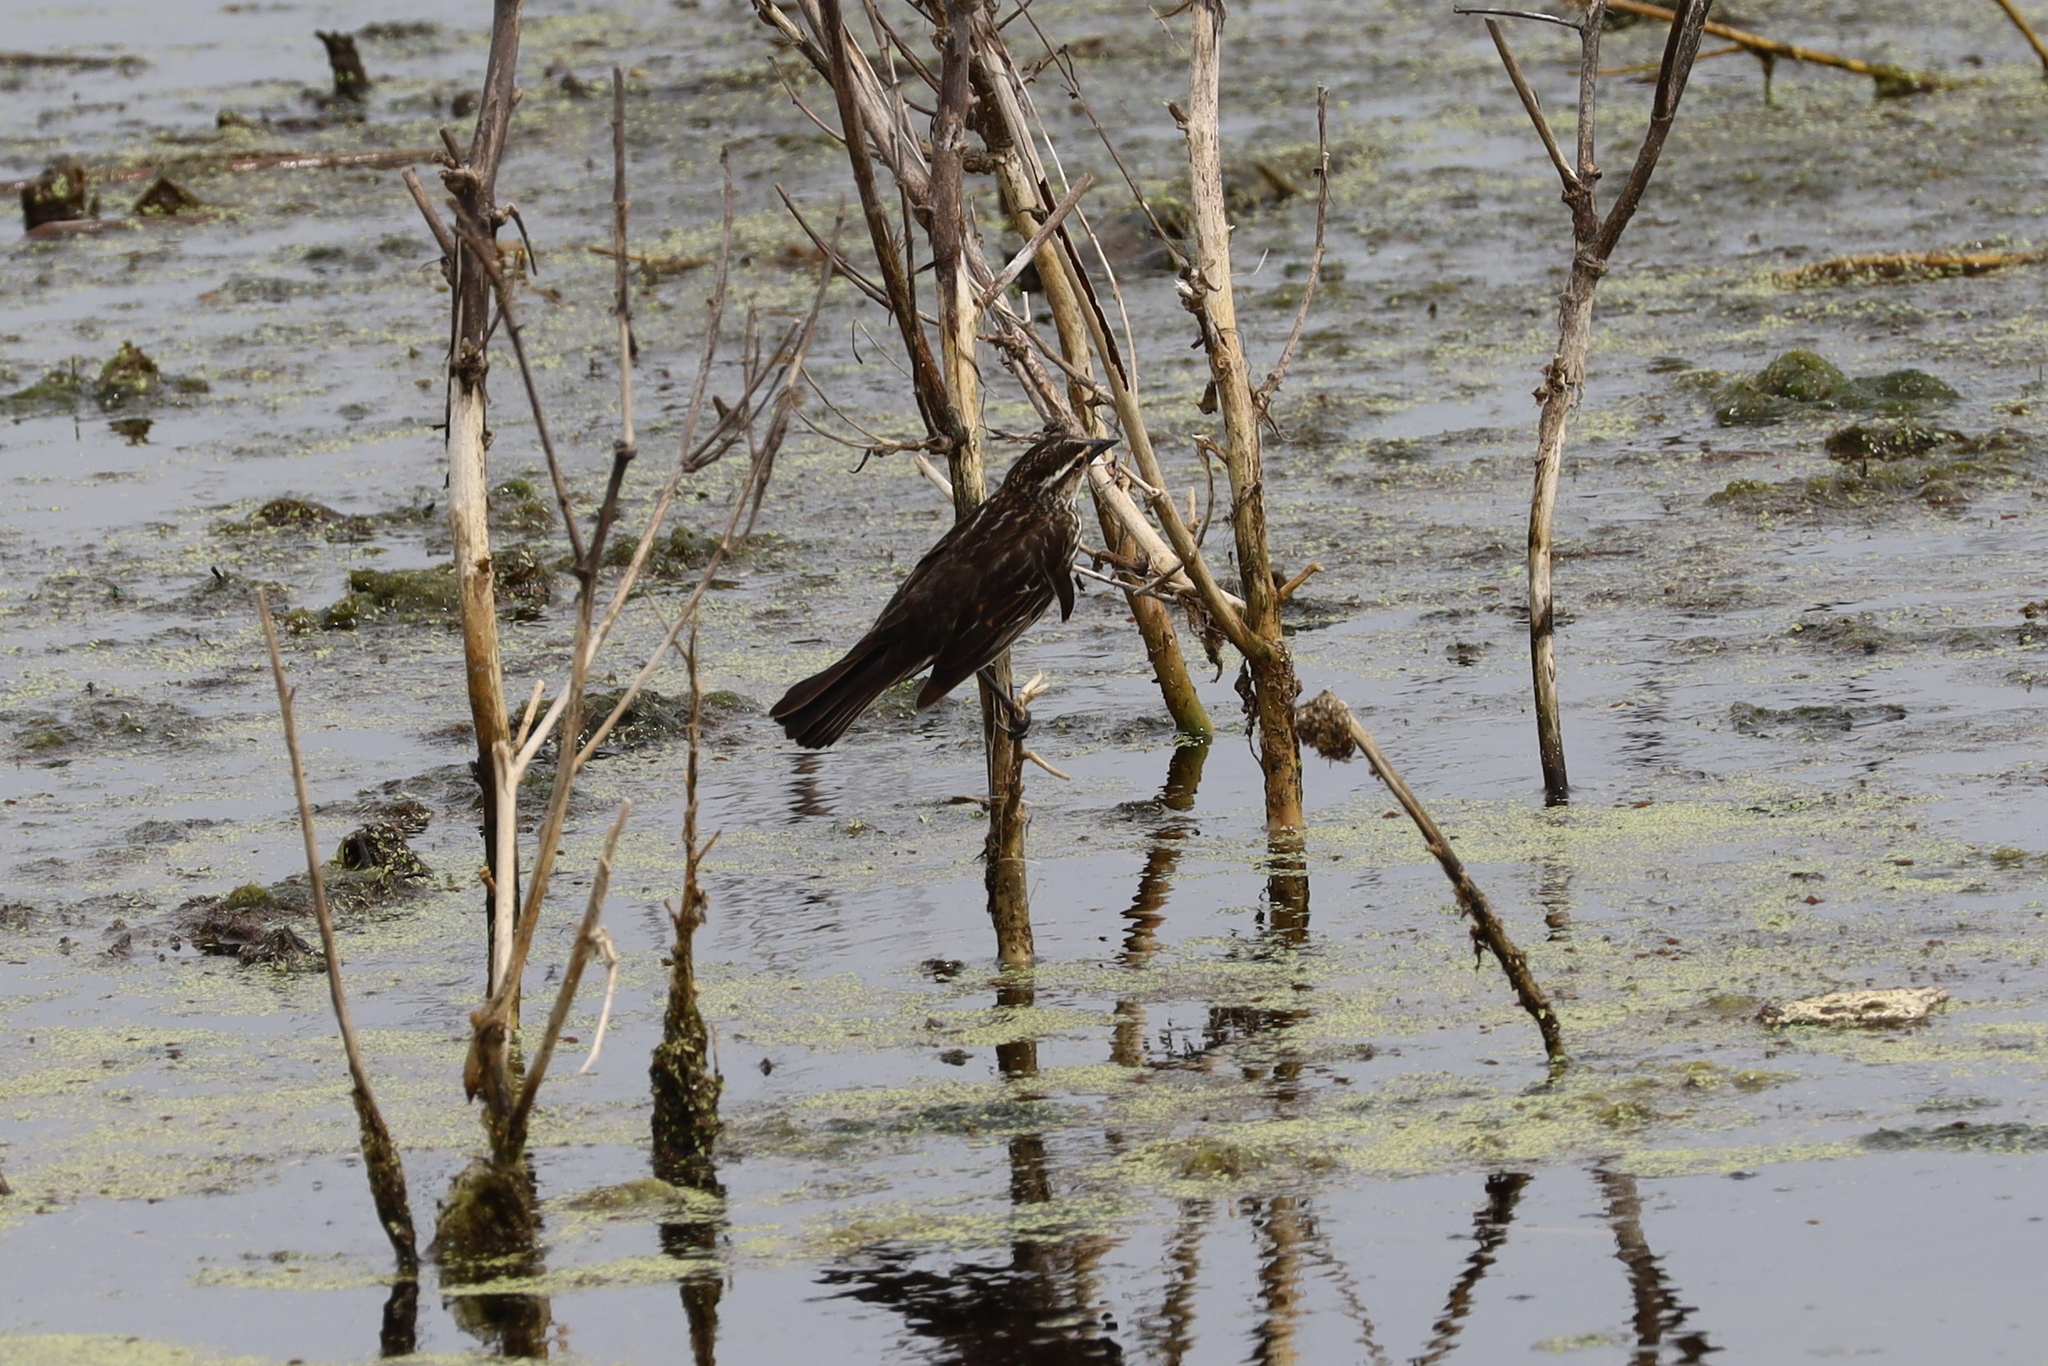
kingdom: Animalia
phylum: Chordata
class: Aves
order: Passeriformes
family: Icteridae
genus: Agelaius
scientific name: Agelaius phoeniceus
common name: Red-winged blackbird
